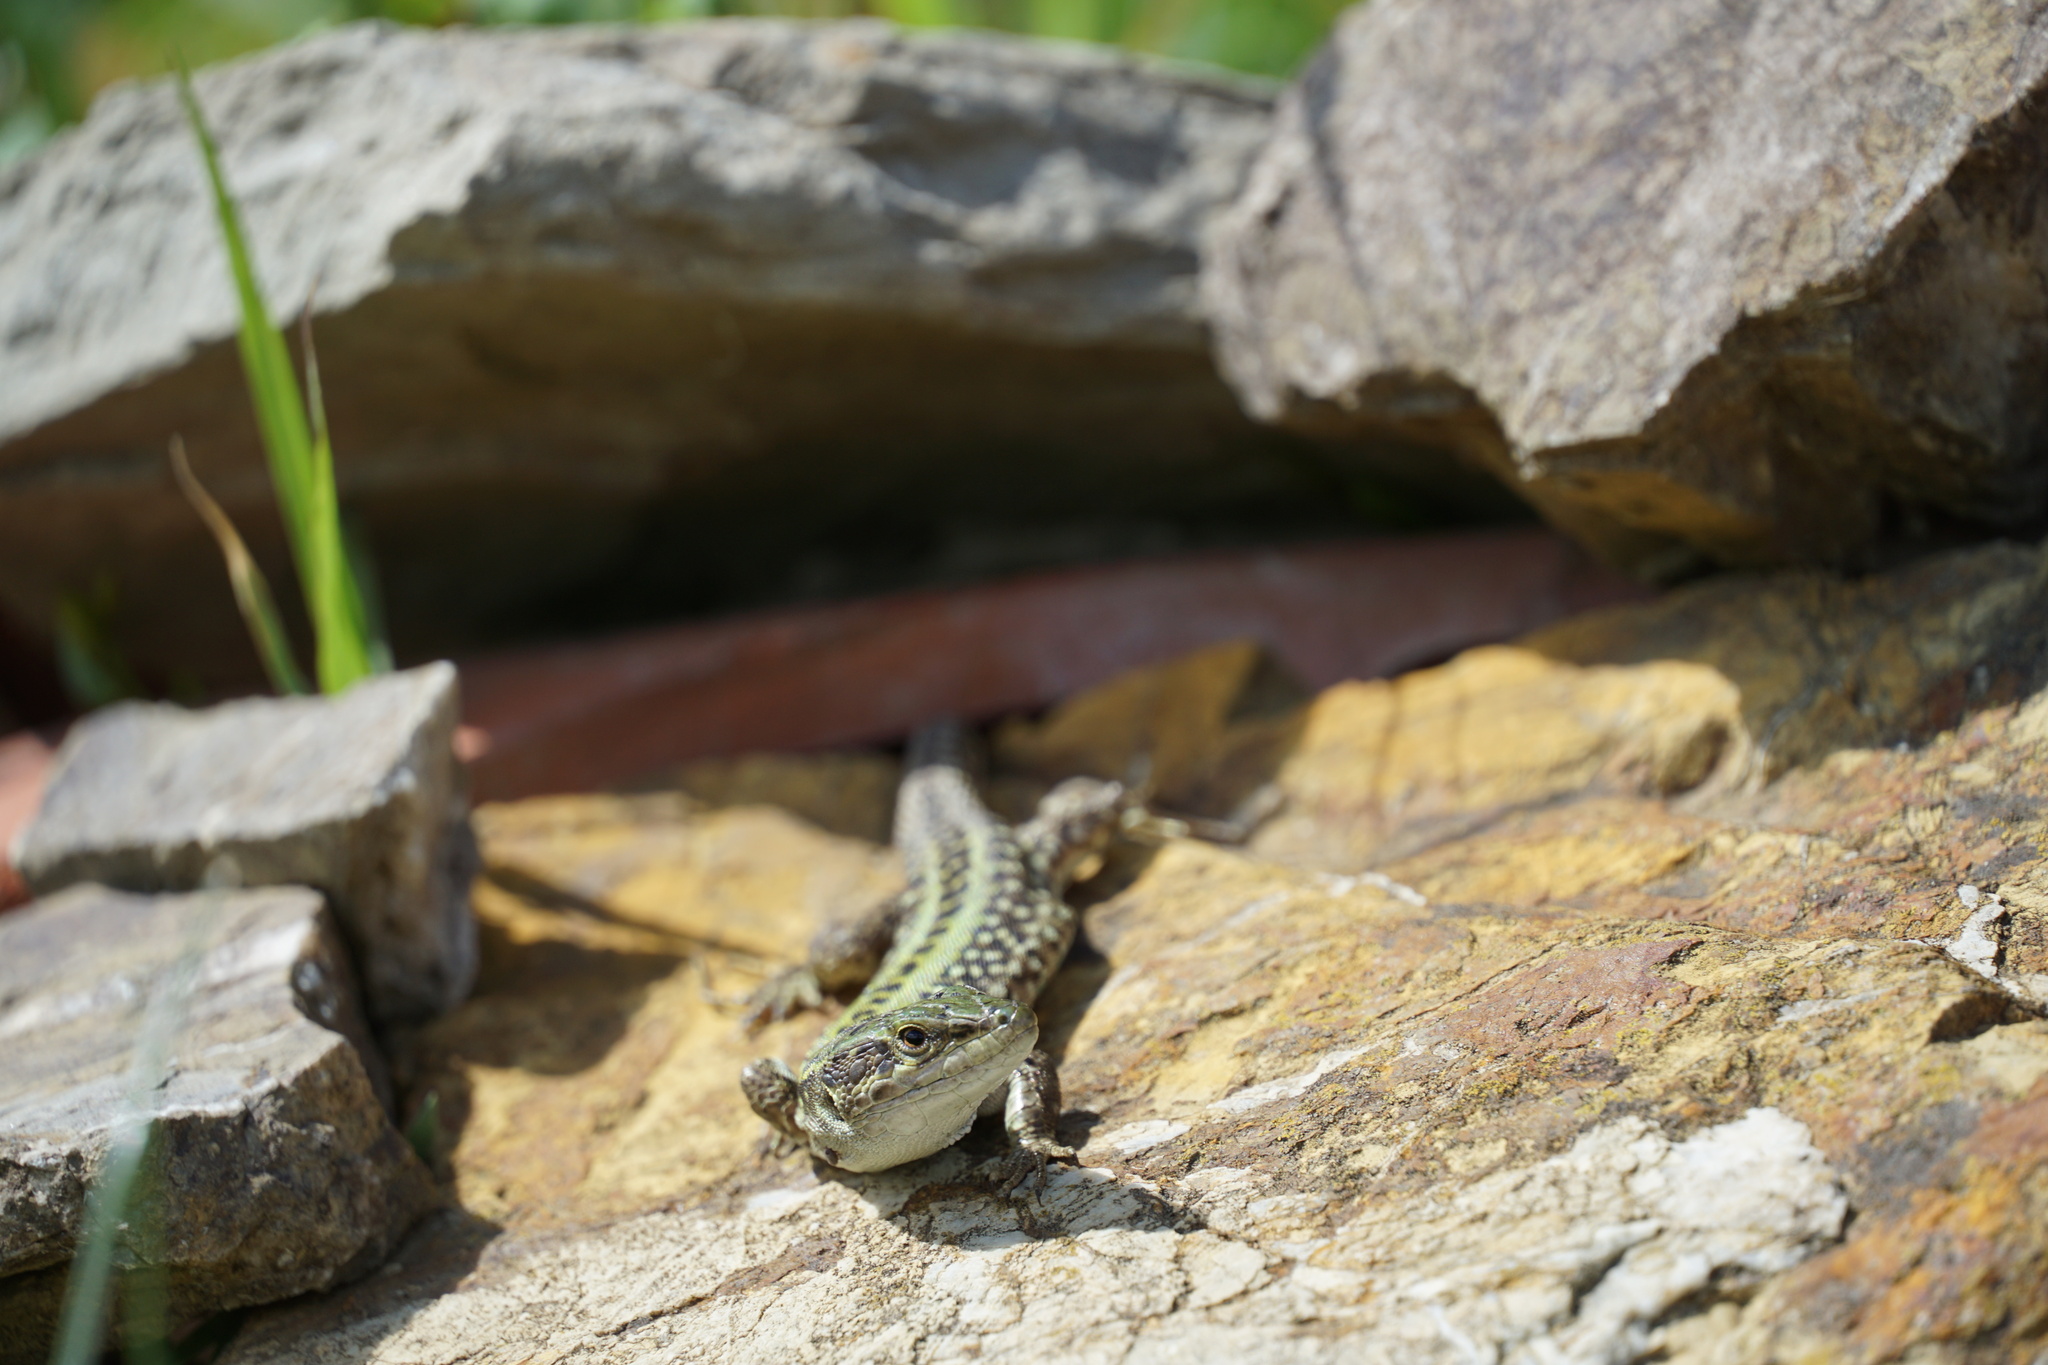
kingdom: Animalia
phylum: Chordata
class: Squamata
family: Lacertidae
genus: Podarcis
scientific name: Podarcis siculus
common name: Italian wall lizard
